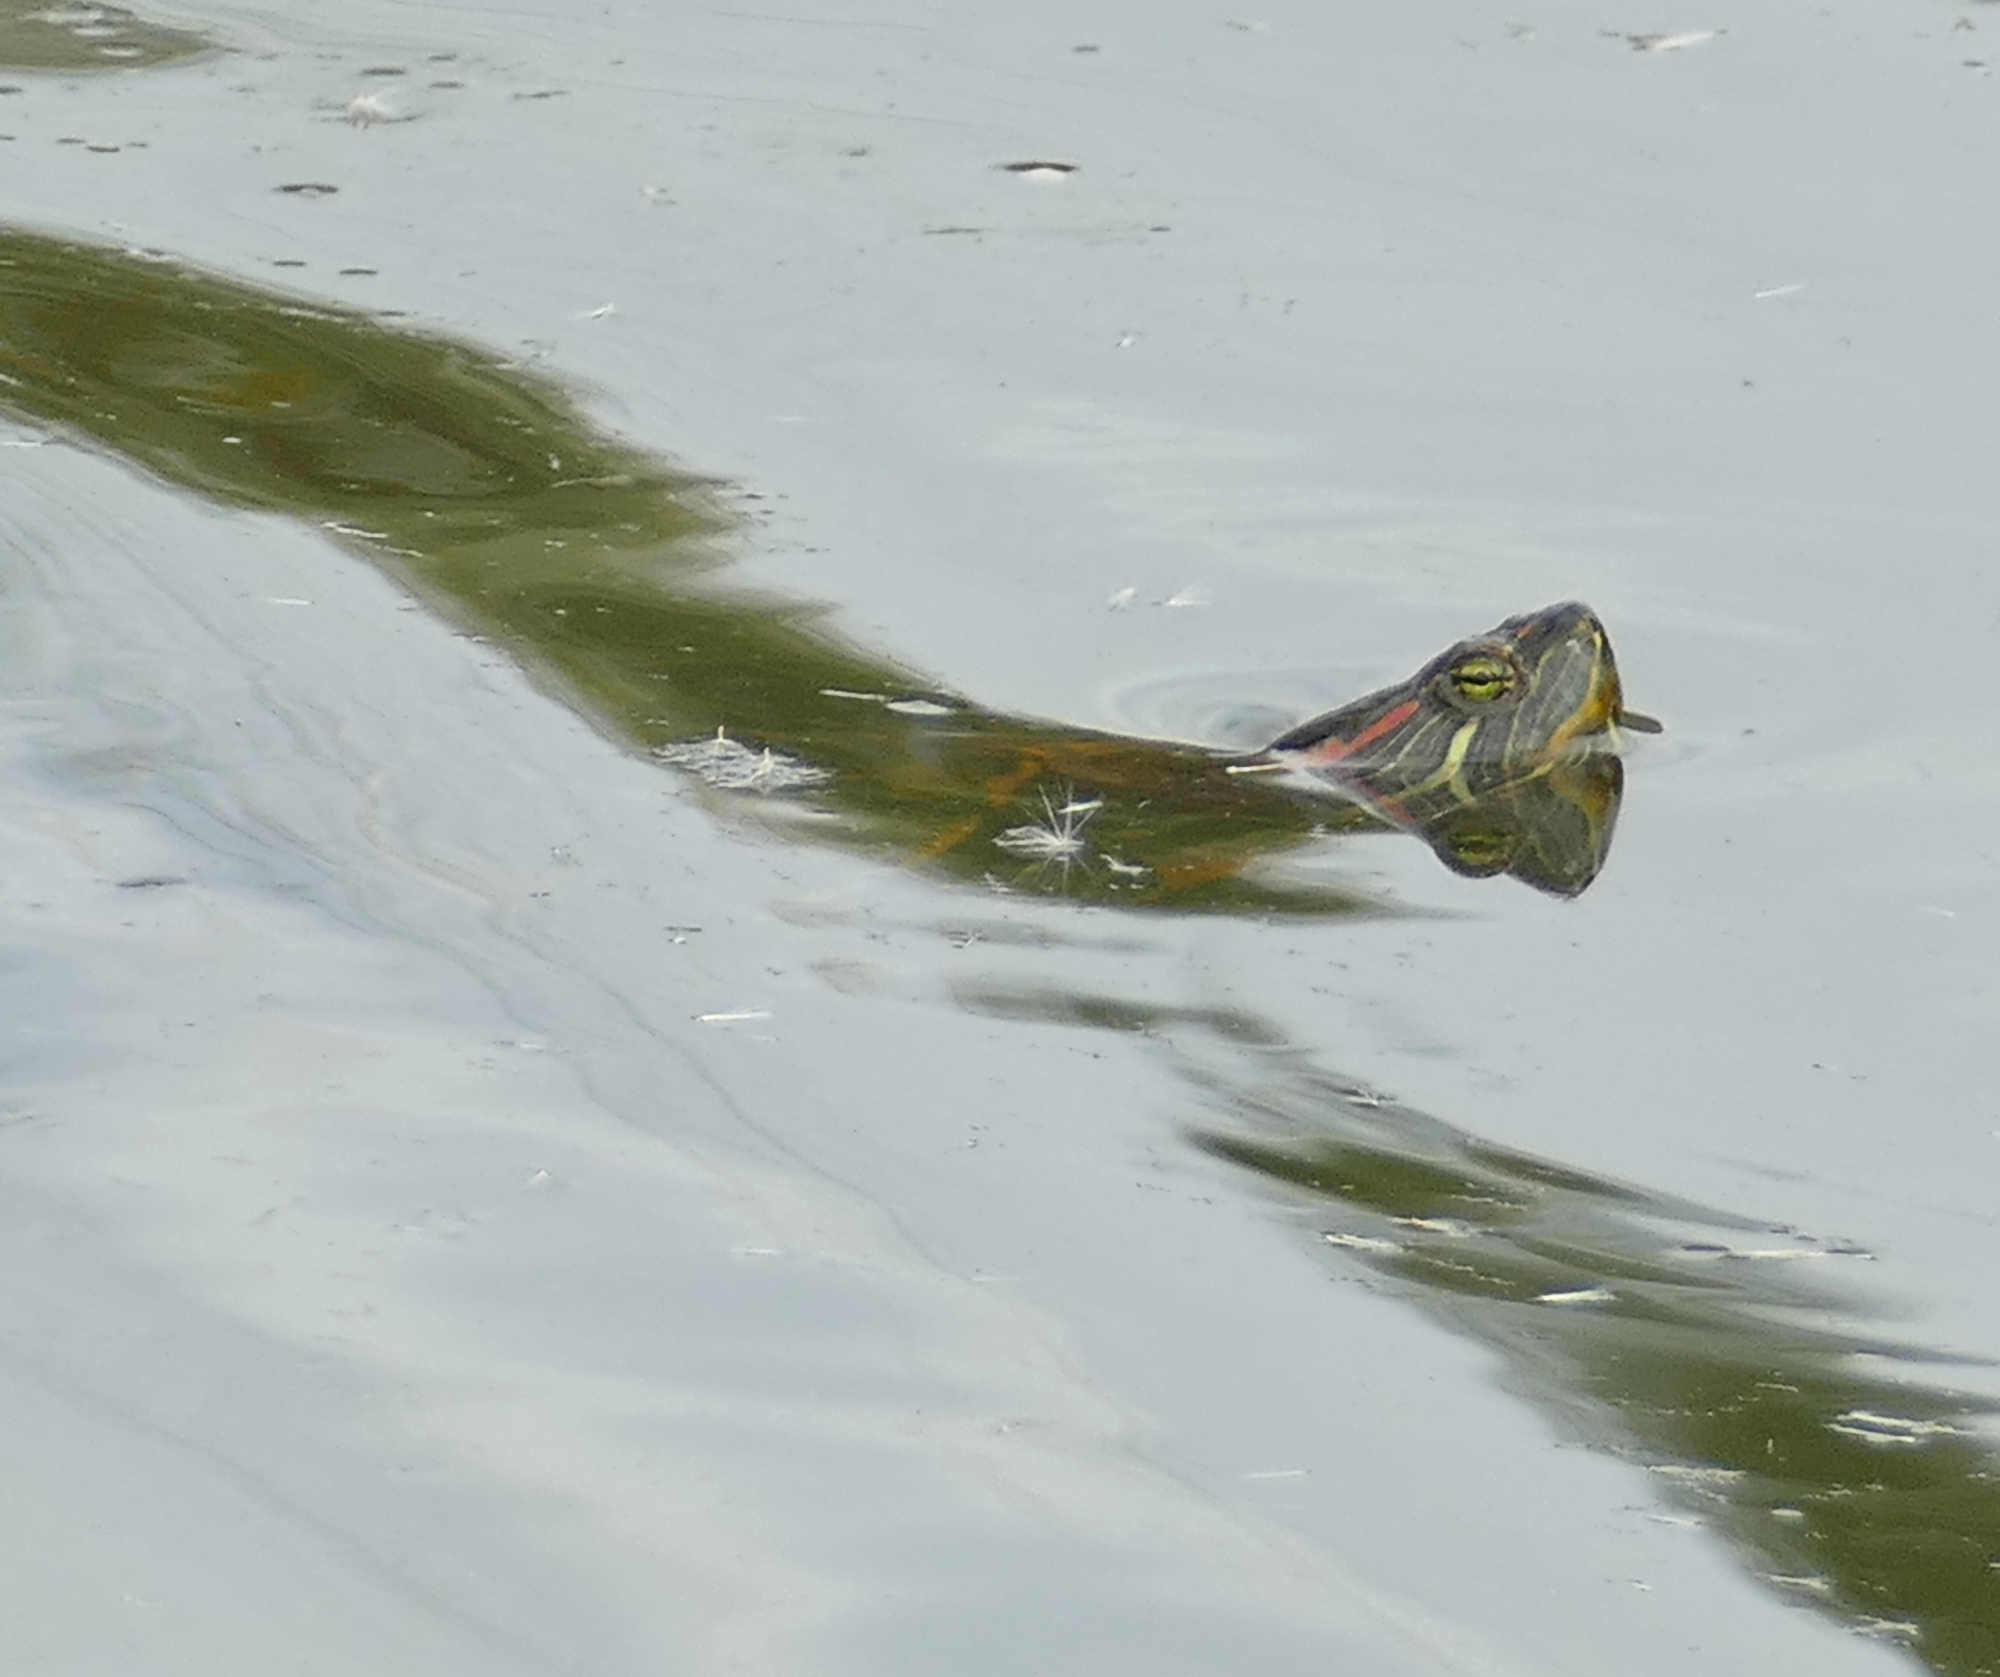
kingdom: Animalia
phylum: Chordata
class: Testudines
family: Emydidae
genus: Trachemys
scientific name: Trachemys scripta
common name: Slider
